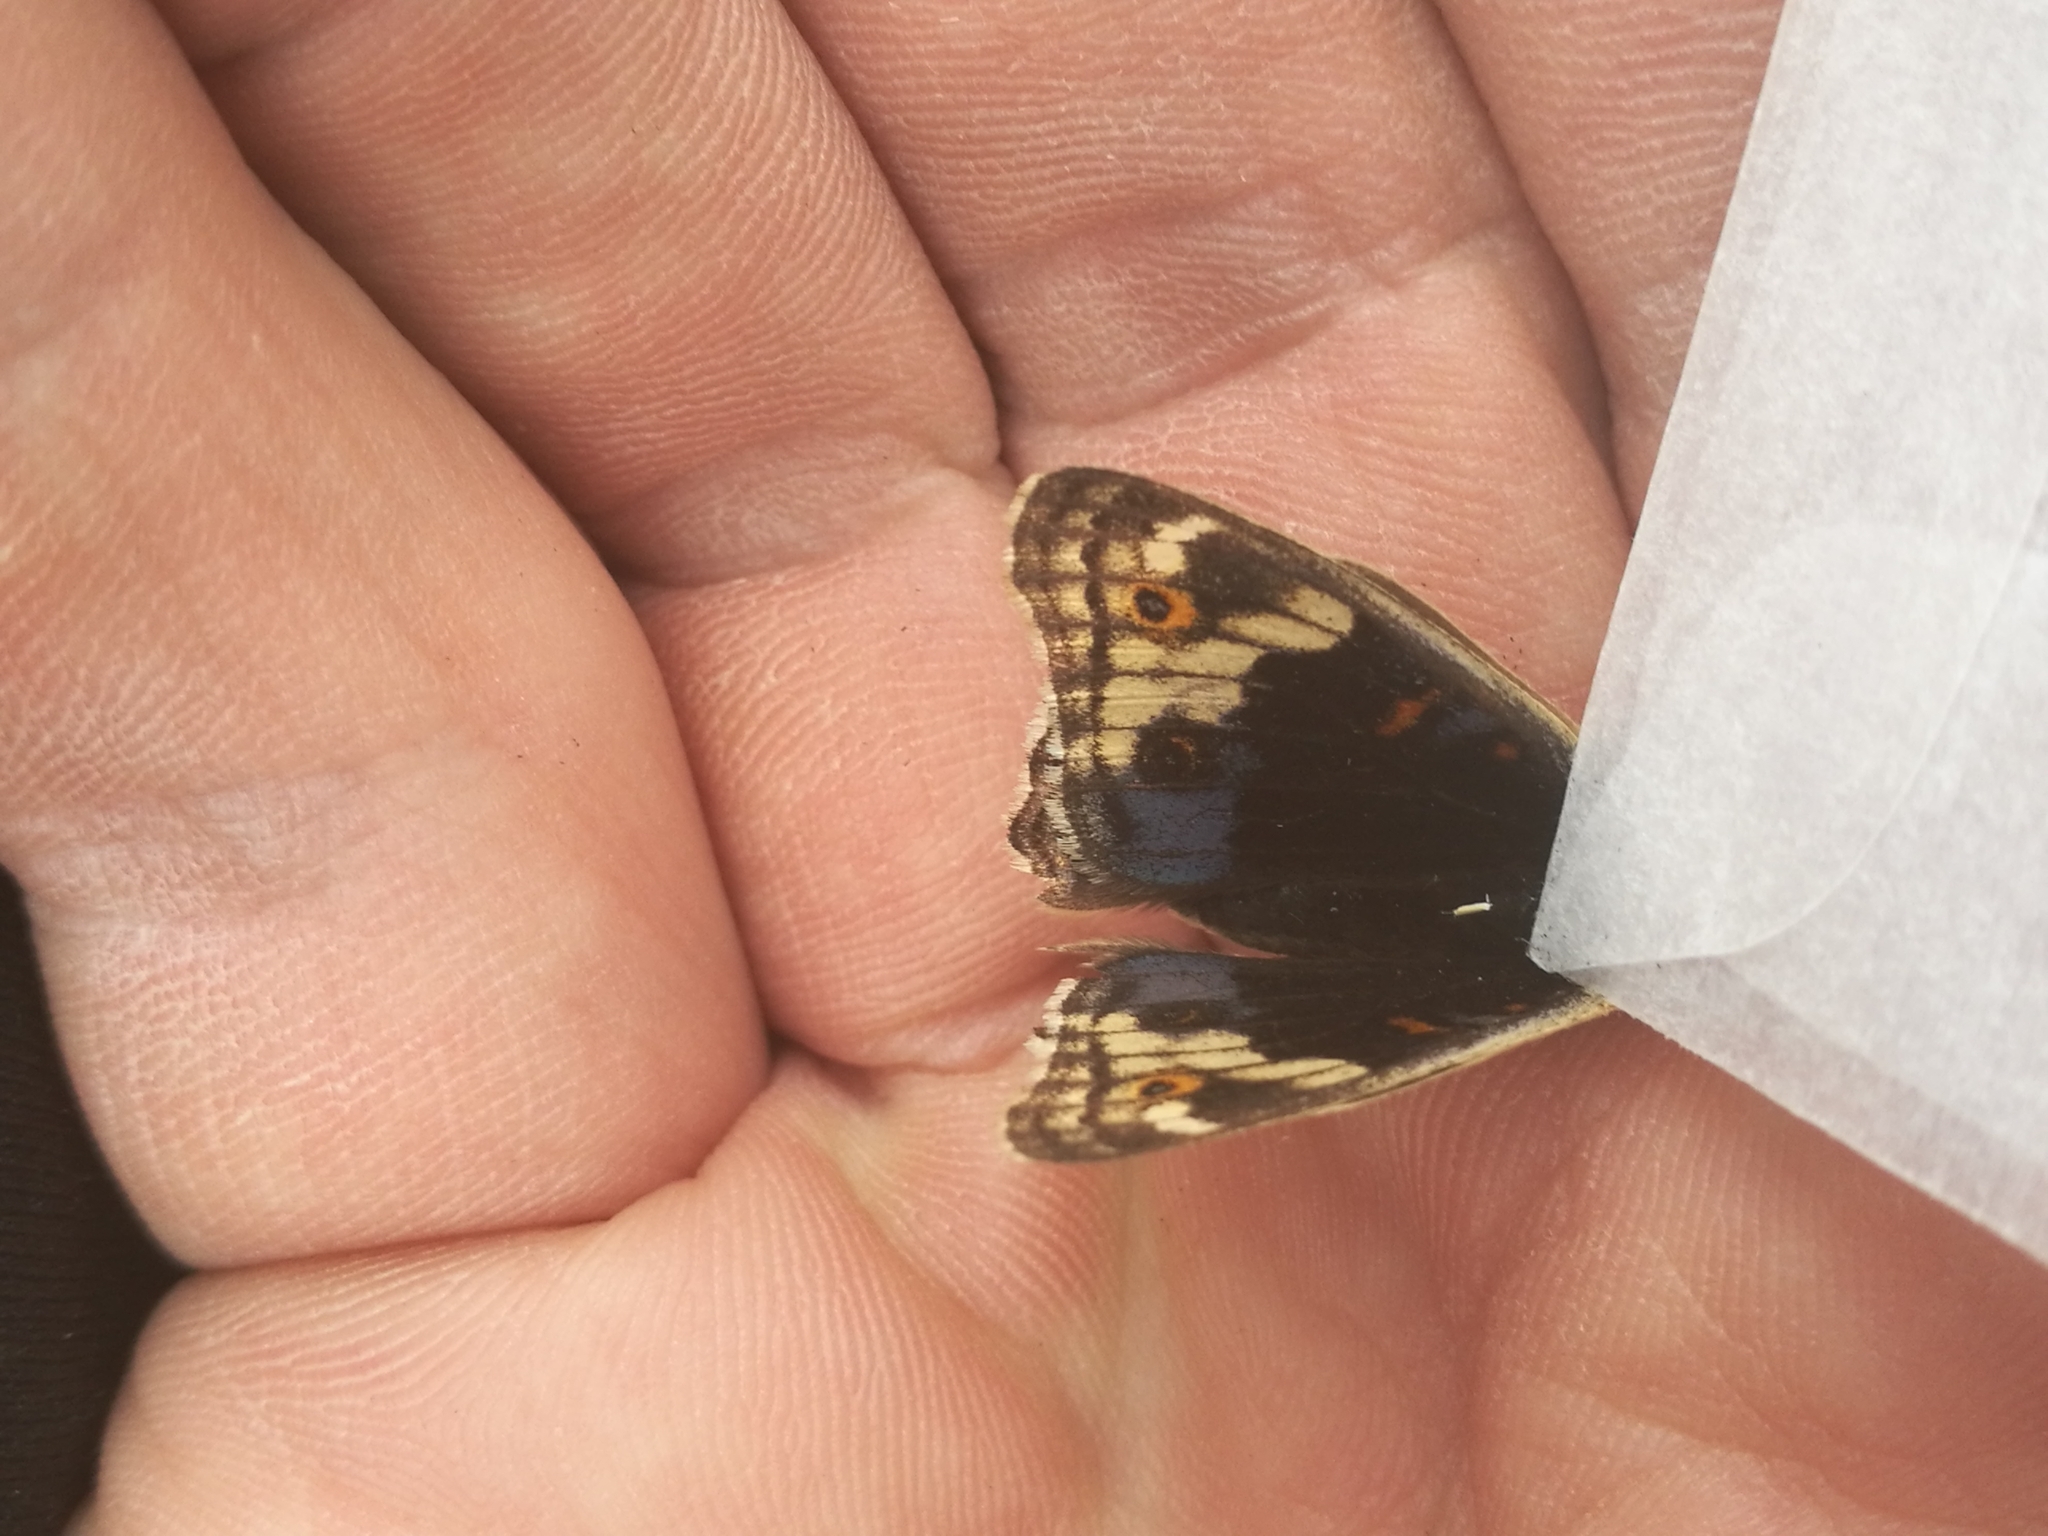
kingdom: Animalia
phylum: Arthropoda
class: Insecta
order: Lepidoptera
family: Nymphalidae
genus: Junonia
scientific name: Junonia orithya
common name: Blue pansy
